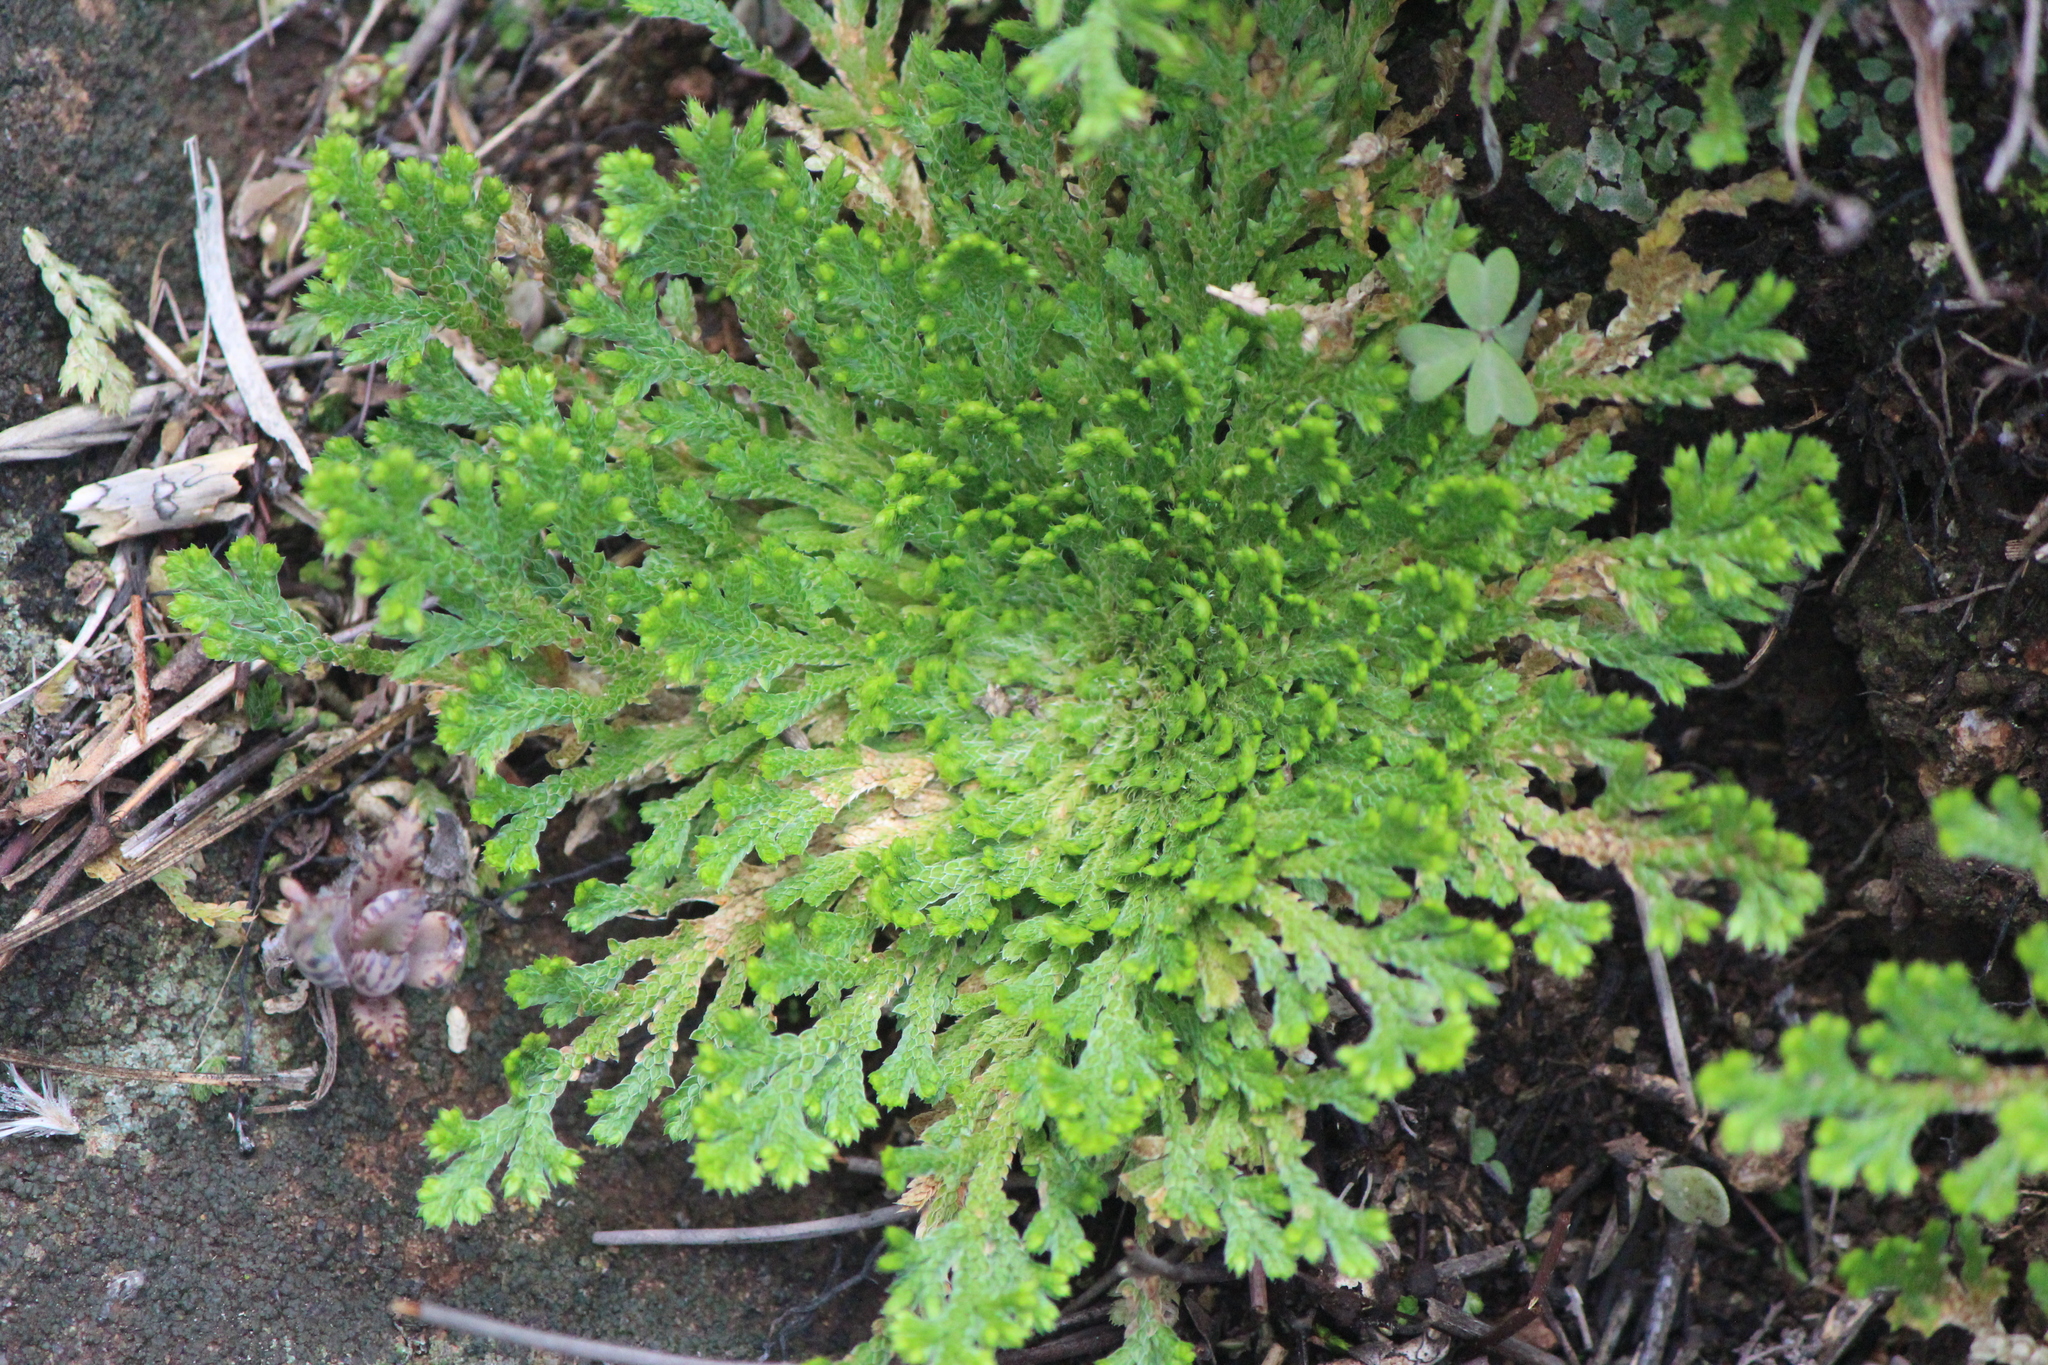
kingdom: Plantae
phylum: Tracheophyta
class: Lycopodiopsida
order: Selaginellales
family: Selaginellaceae
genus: Selaginella
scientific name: Selaginella lepidophylla
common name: Rose-of-jericho
